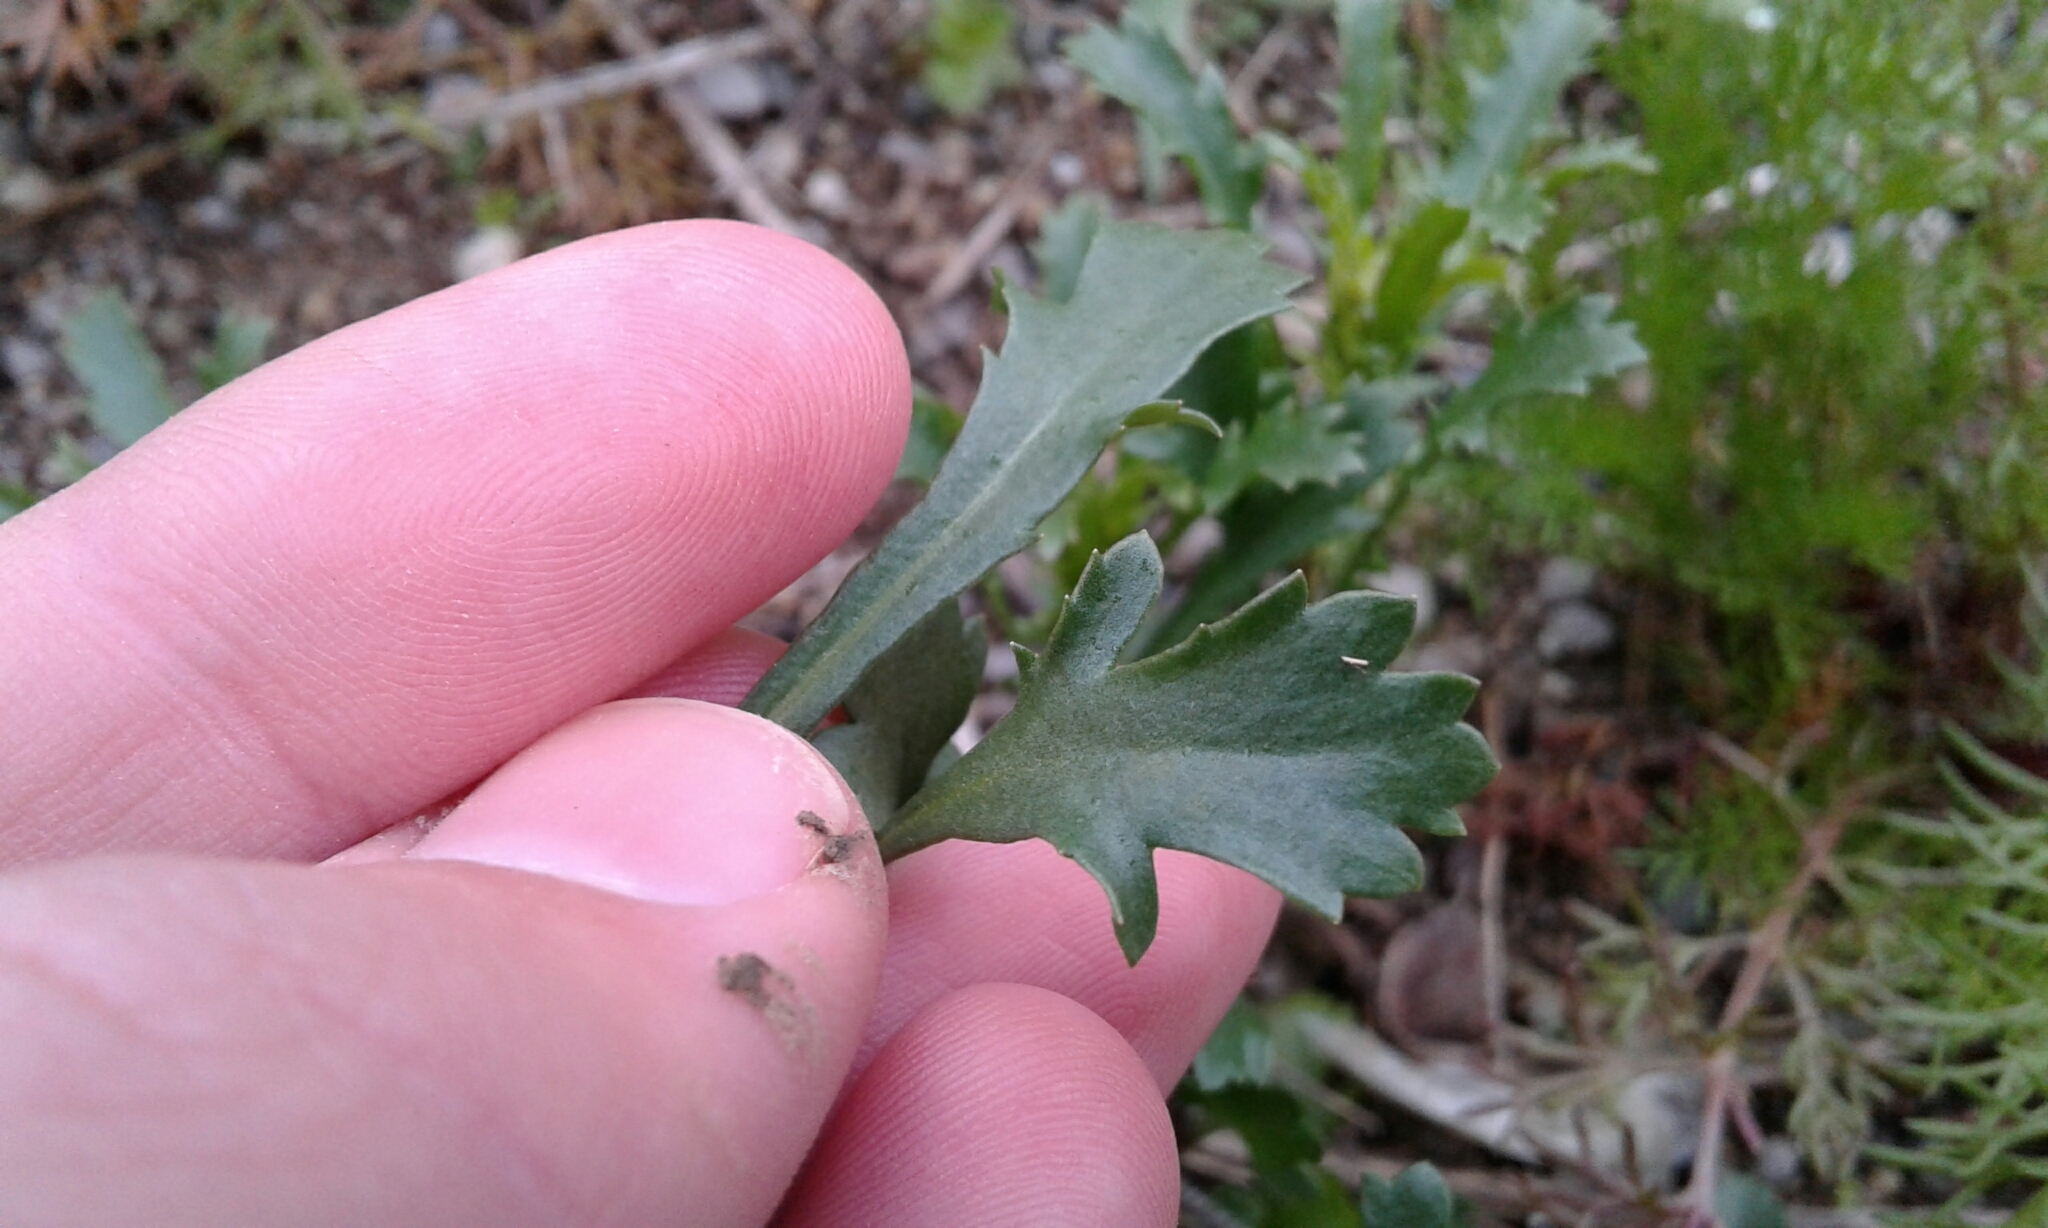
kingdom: Plantae
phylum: Tracheophyta
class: Magnoliopsida
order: Asterales
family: Asteraceae
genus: Leucanthemum
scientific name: Leucanthemum vulgare
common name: Oxeye daisy
